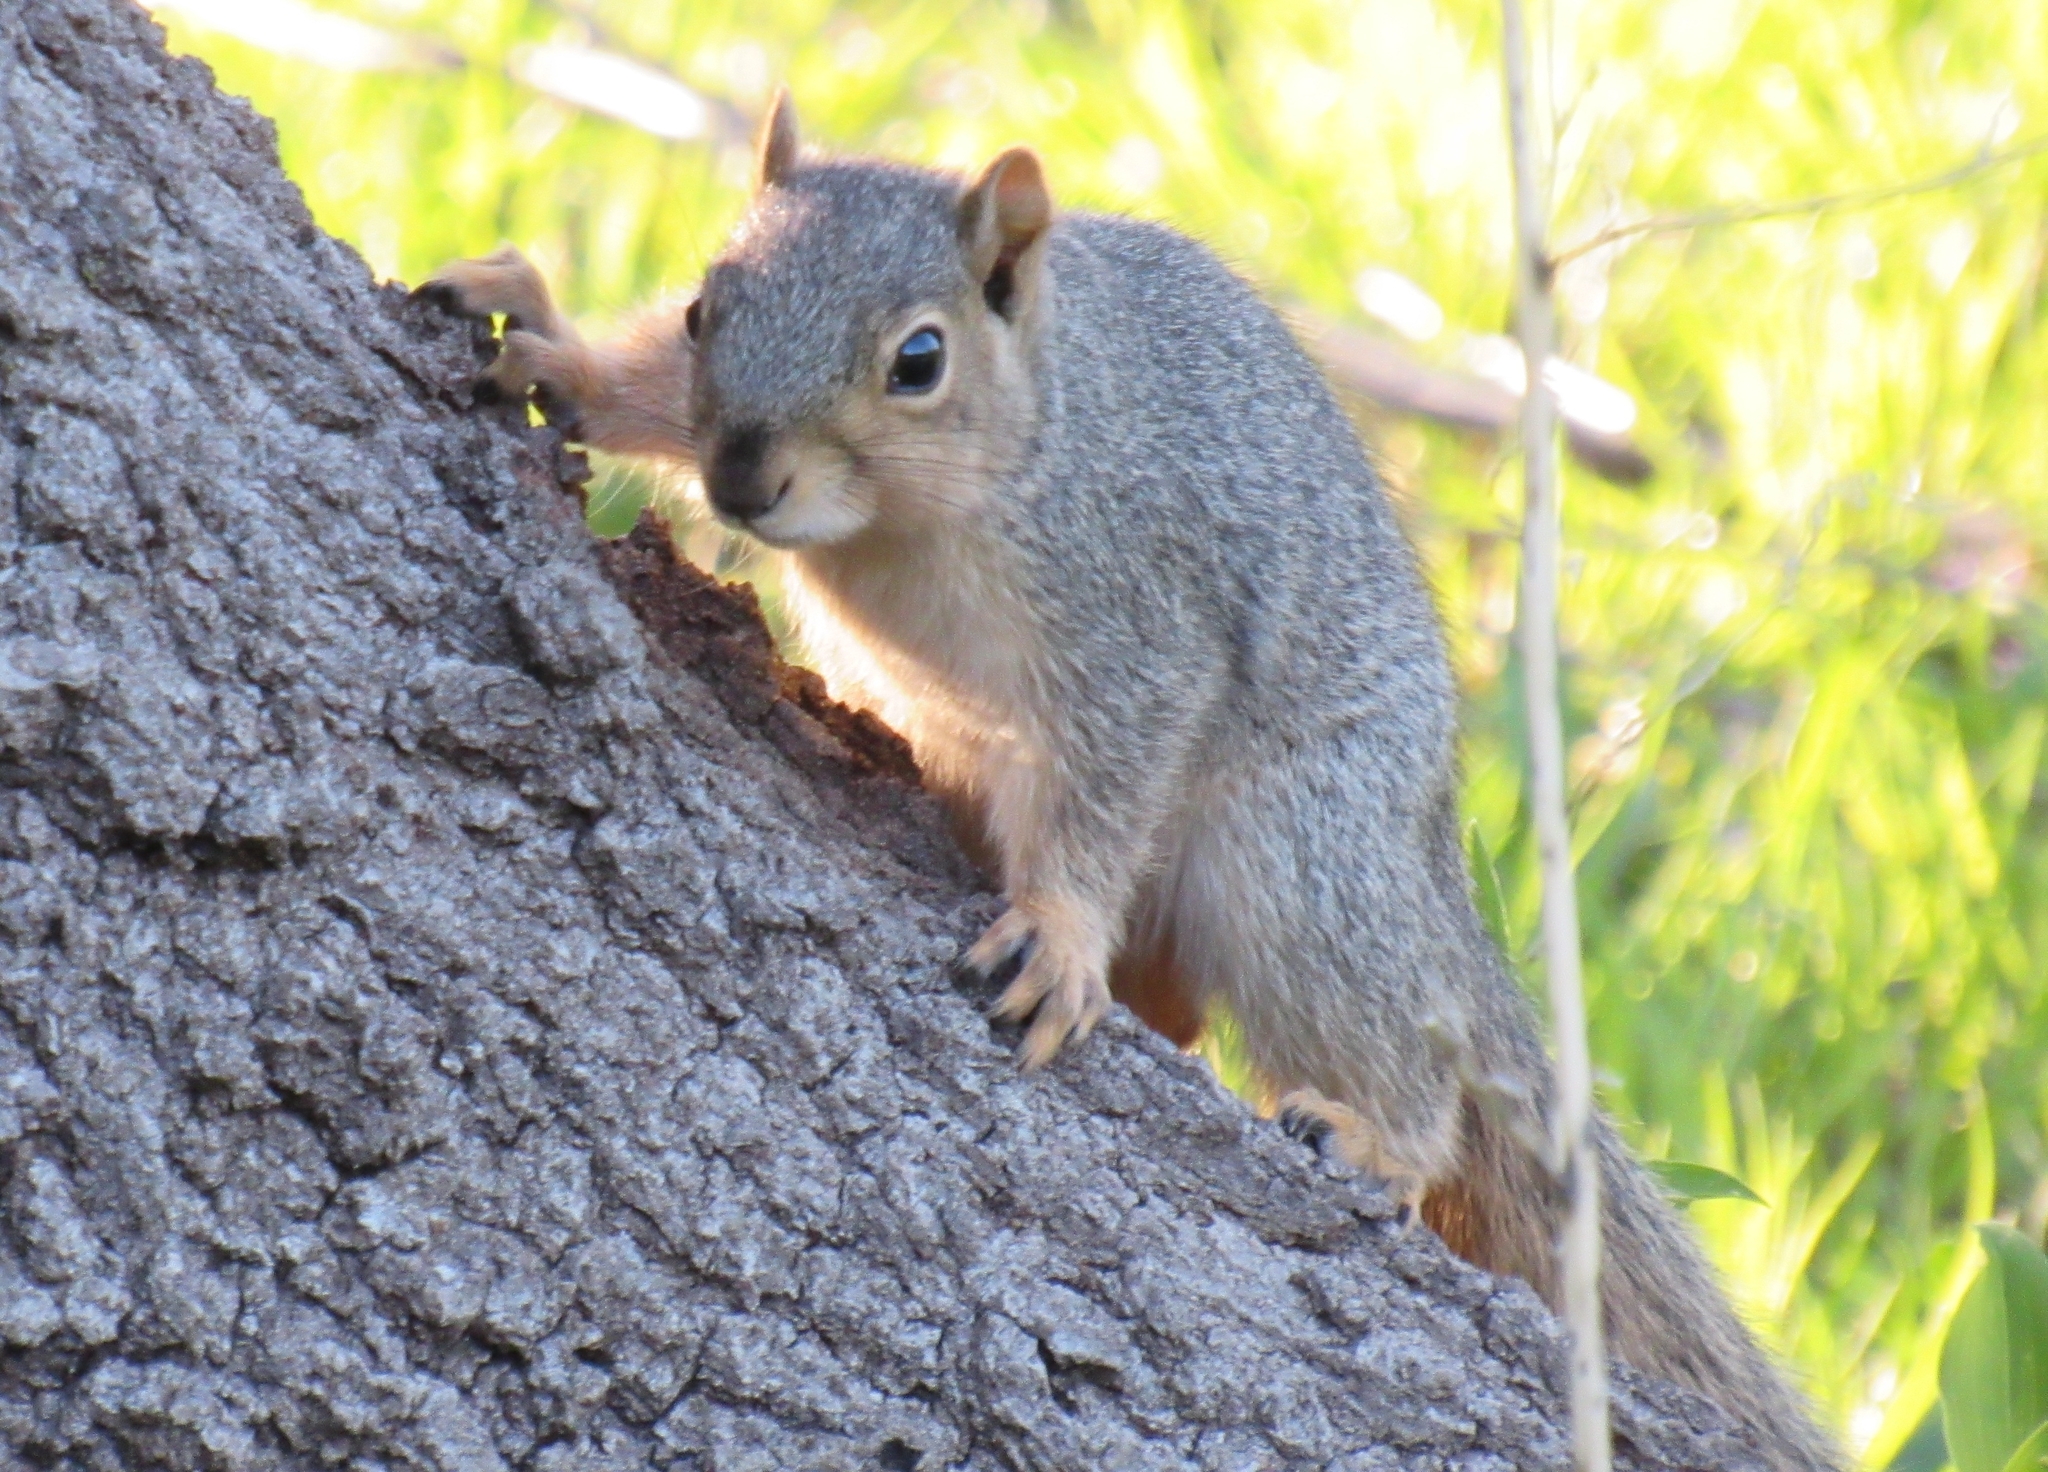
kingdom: Animalia
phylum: Chordata
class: Mammalia
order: Rodentia
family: Sciuridae
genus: Sciurus
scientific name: Sciurus niger
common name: Fox squirrel
